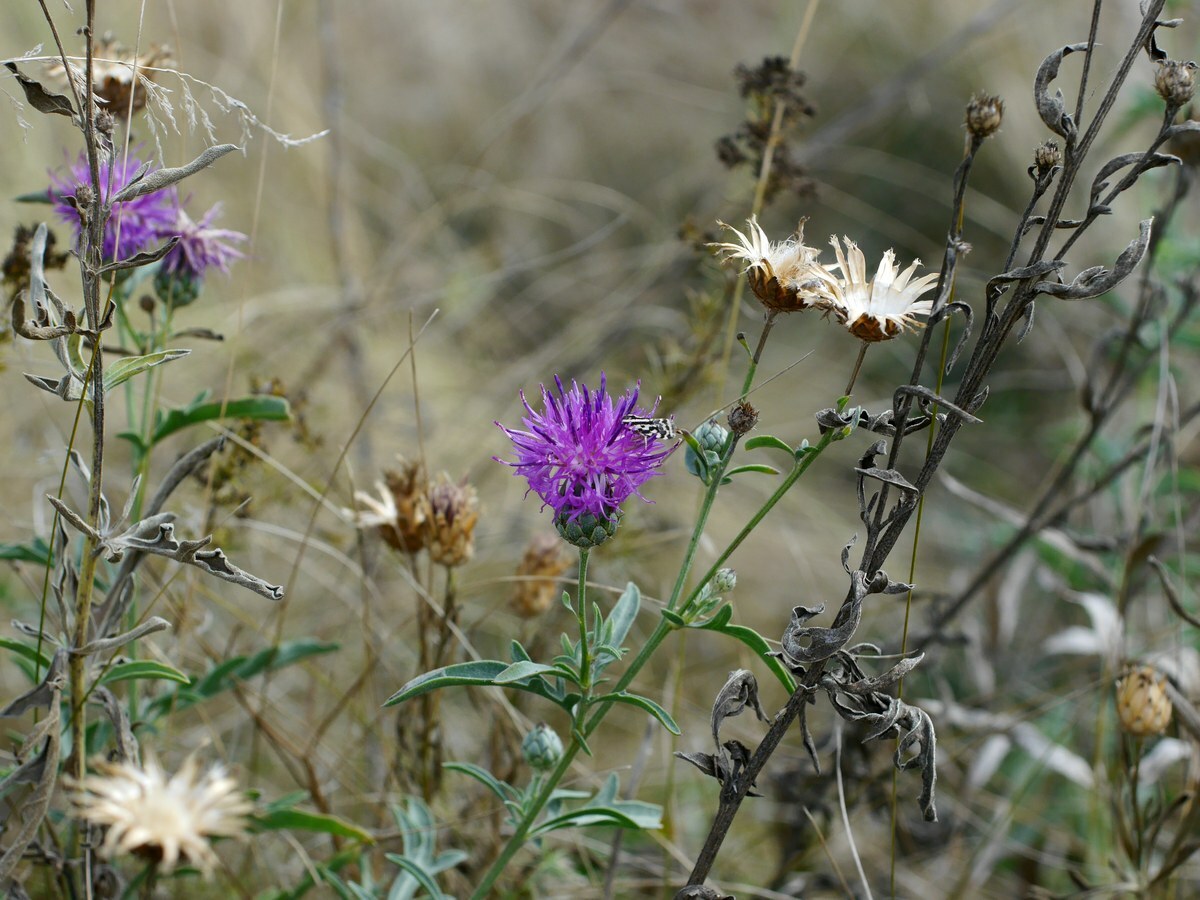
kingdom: Plantae
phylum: Tracheophyta
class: Magnoliopsida
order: Asterales
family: Asteraceae
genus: Centaurea
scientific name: Centaurea scabiosa
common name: Greater knapweed
